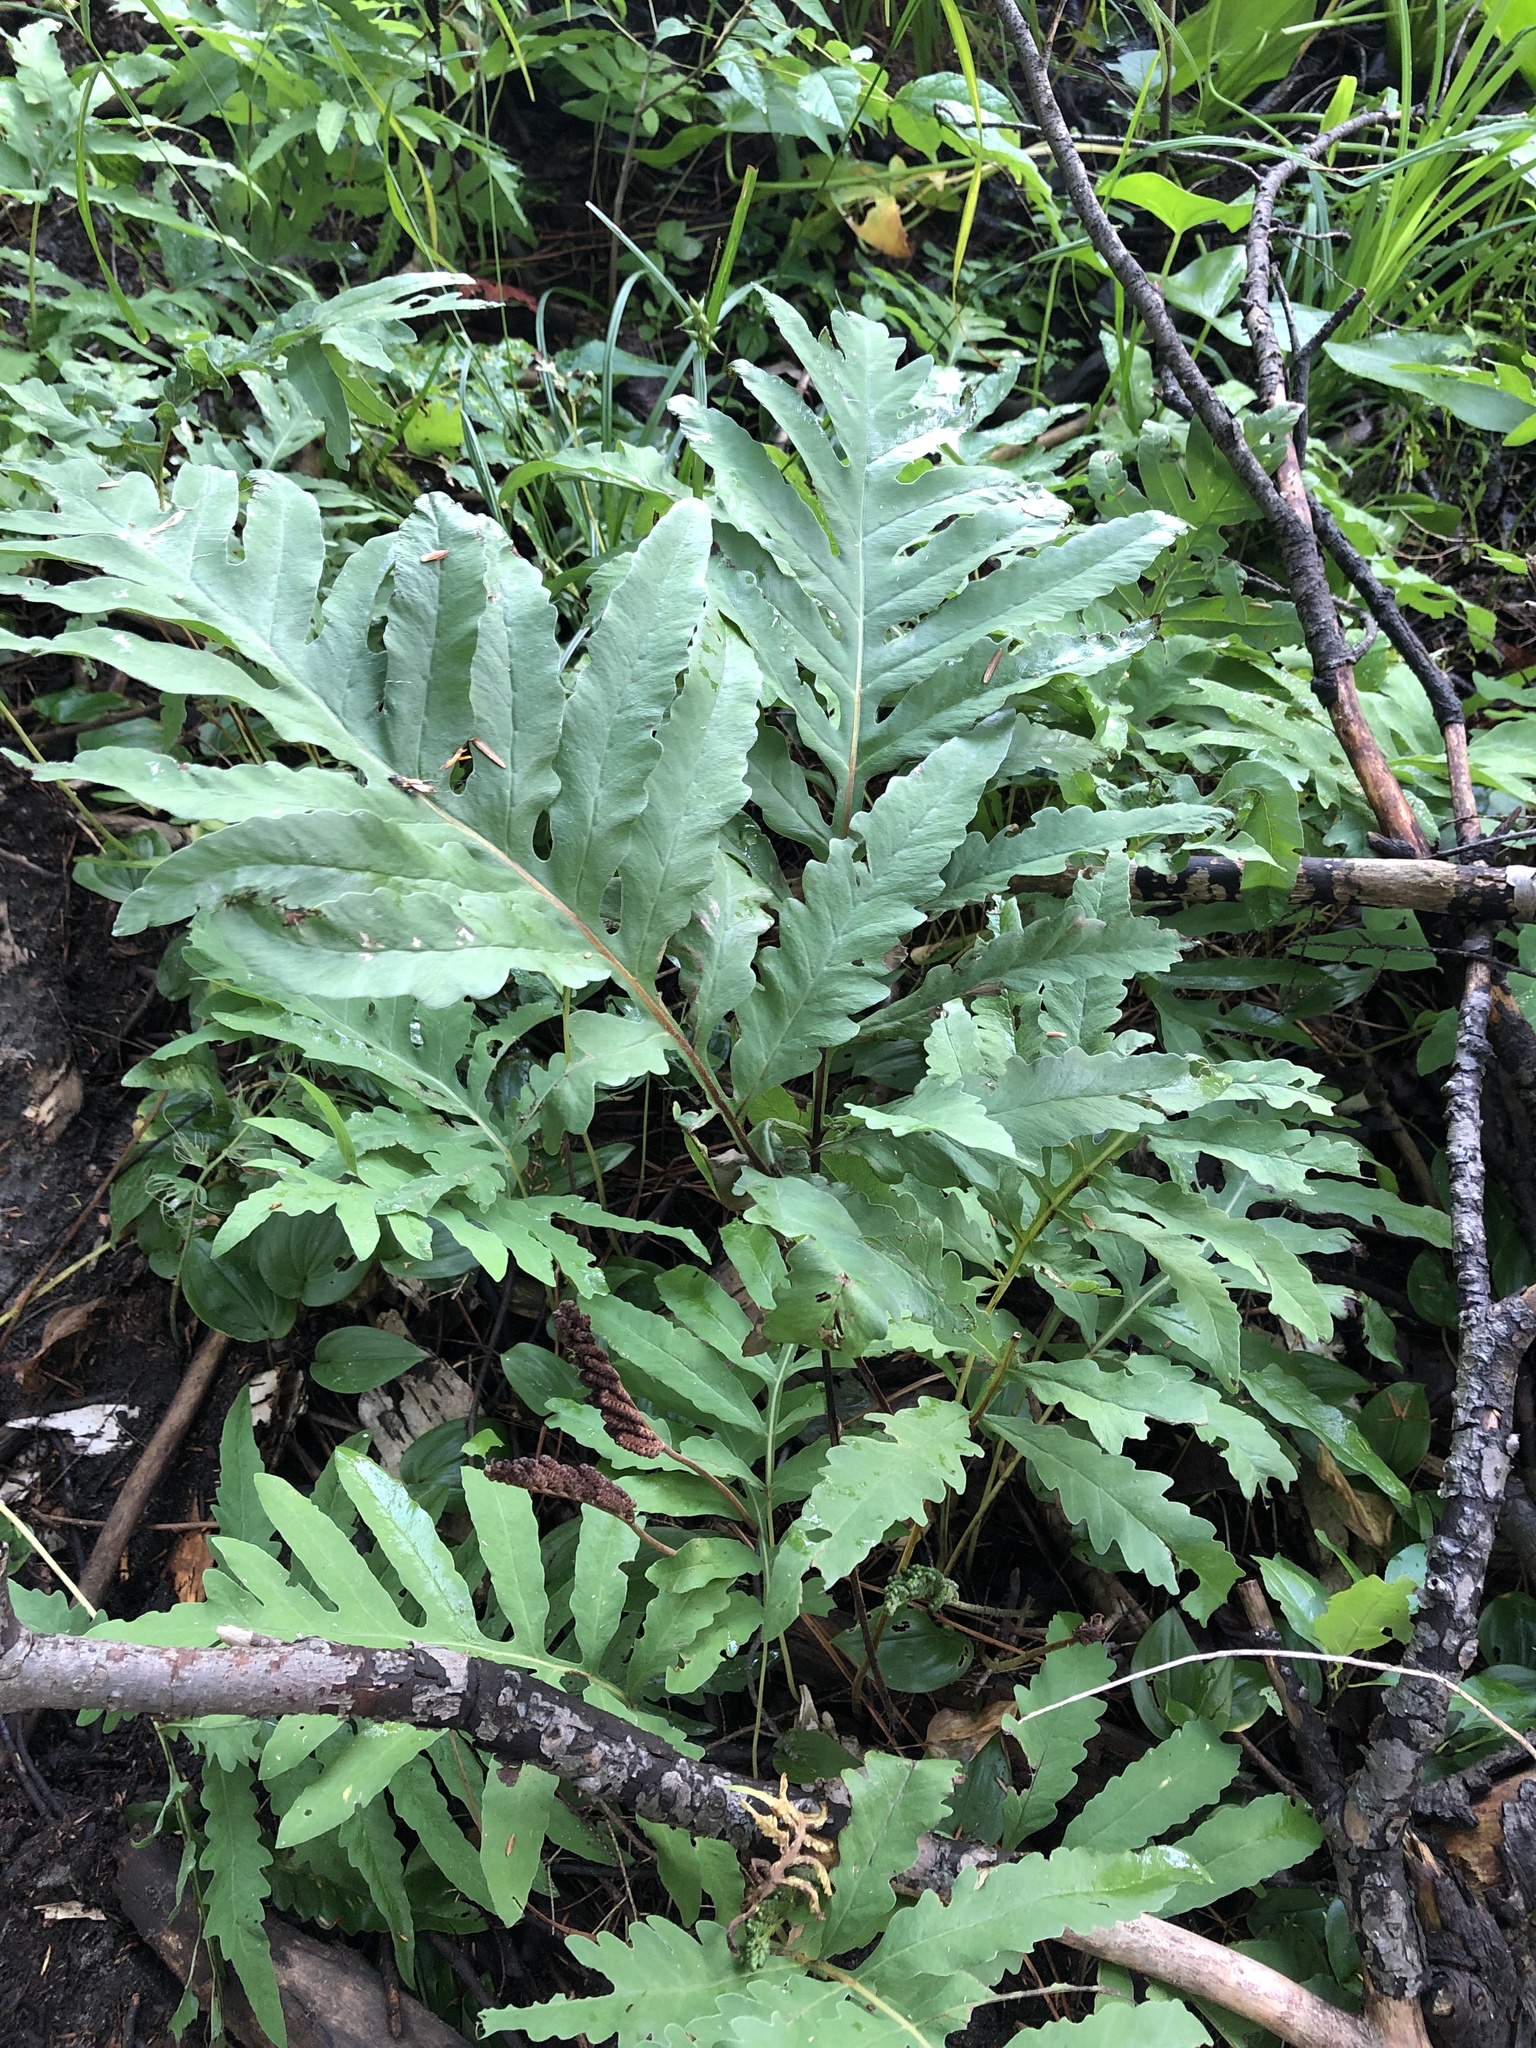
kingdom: Plantae
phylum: Tracheophyta
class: Polypodiopsida
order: Polypodiales
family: Onocleaceae
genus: Onoclea
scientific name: Onoclea sensibilis
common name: Sensitive fern
